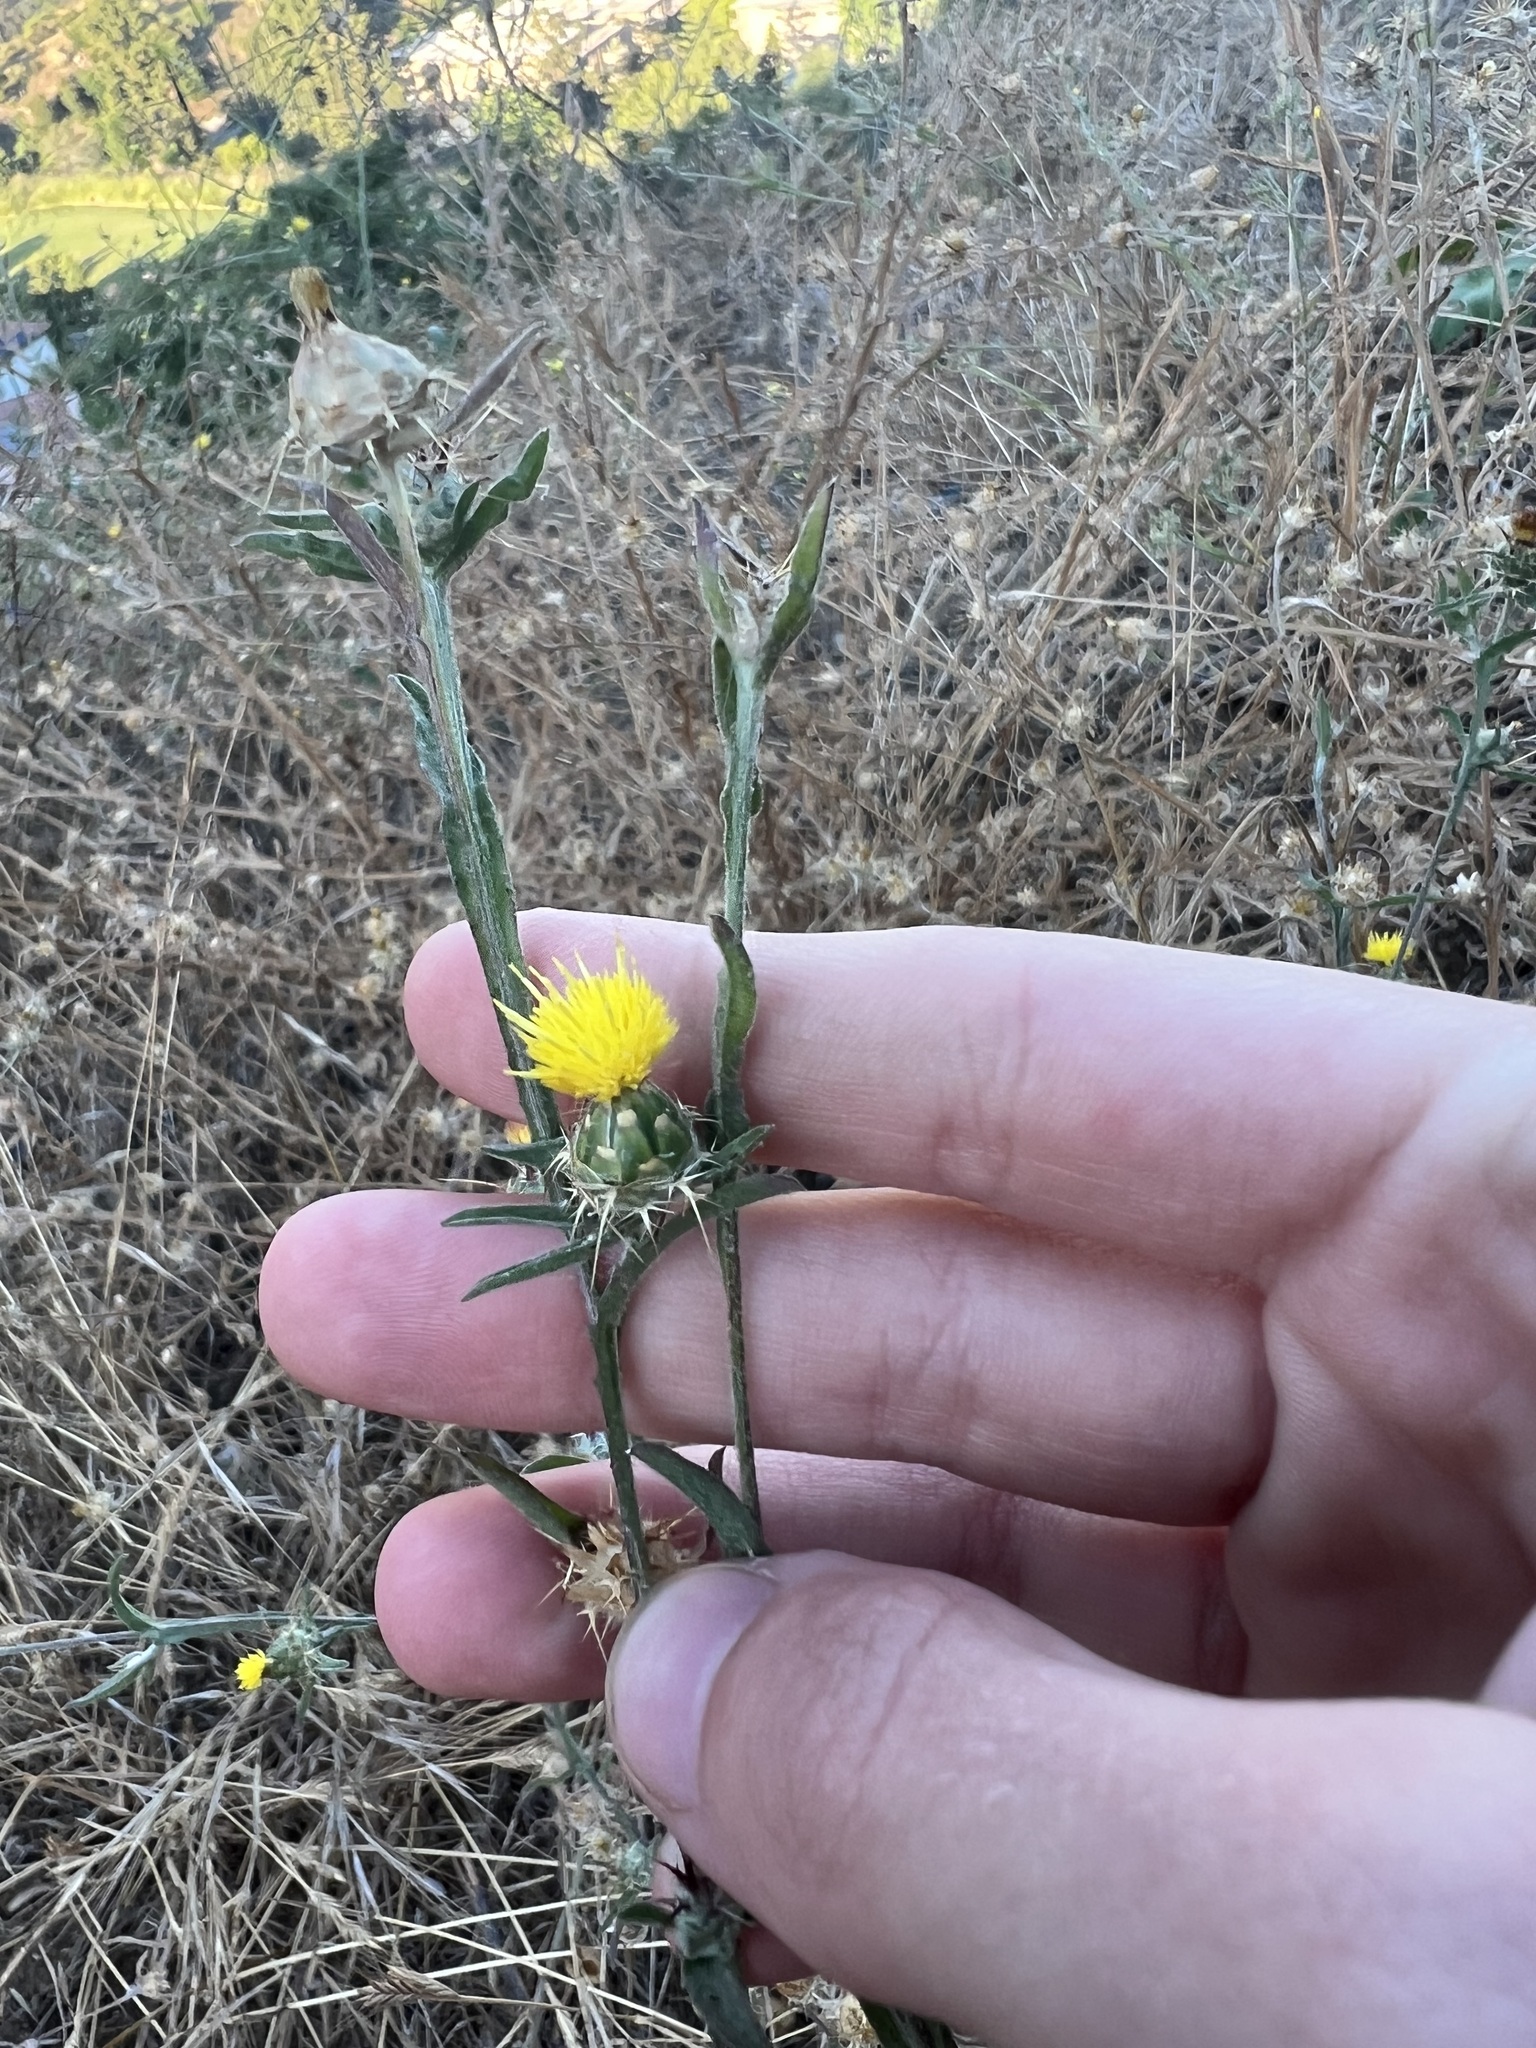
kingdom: Plantae
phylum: Tracheophyta
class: Magnoliopsida
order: Asterales
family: Asteraceae
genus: Centaurea
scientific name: Centaurea melitensis
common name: Maltese star-thistle
